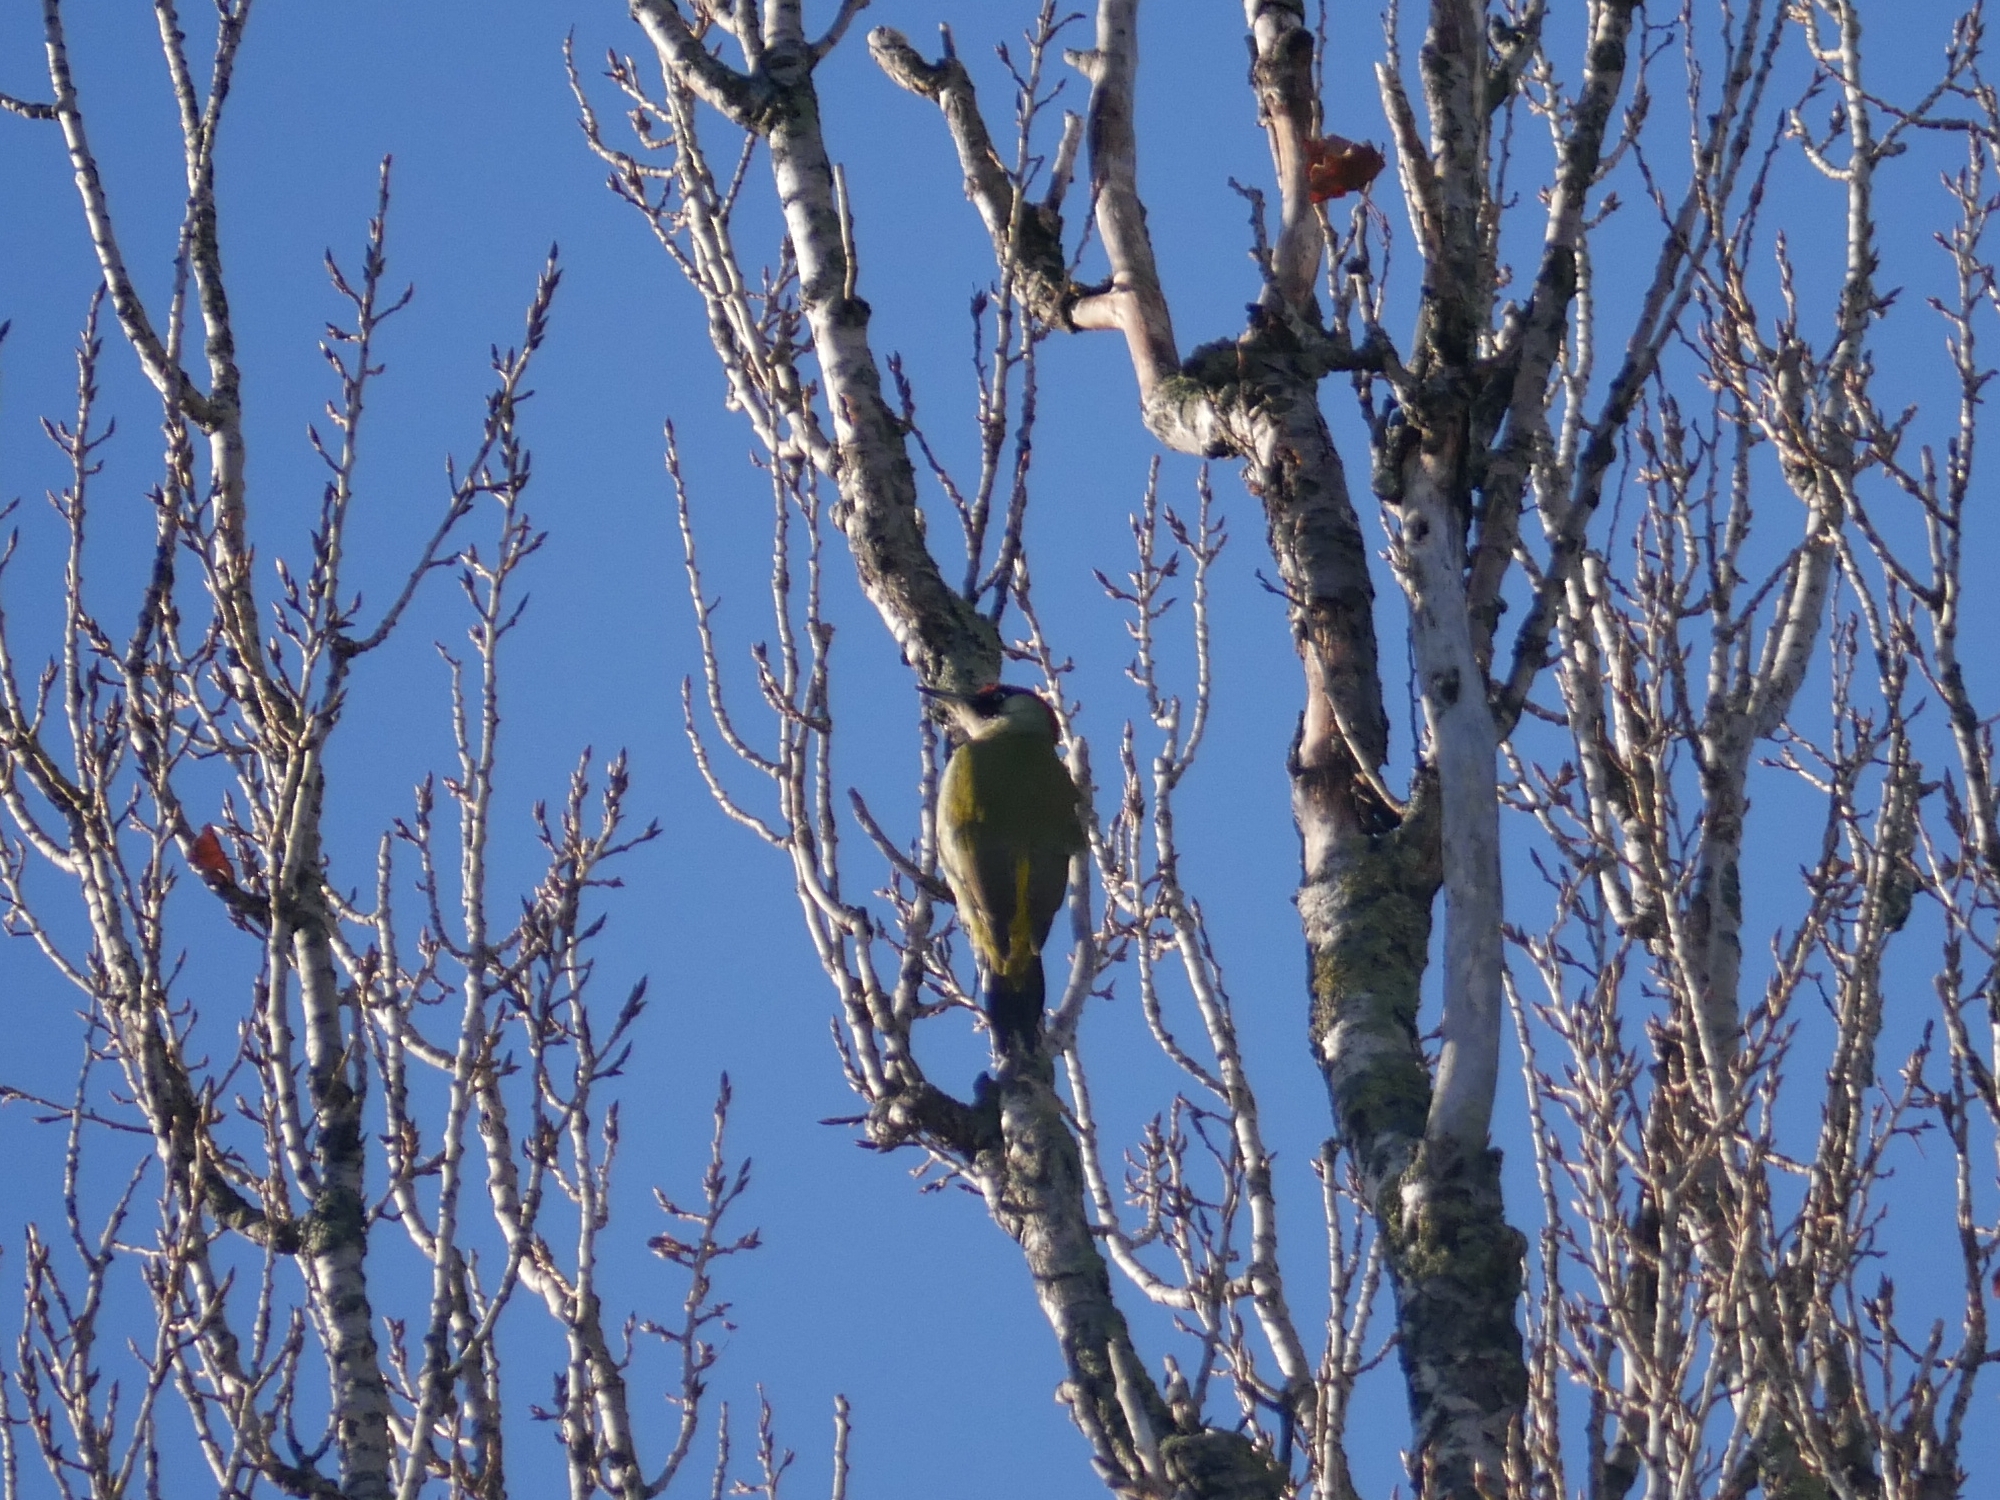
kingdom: Animalia
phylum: Chordata
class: Aves
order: Piciformes
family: Picidae
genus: Picus
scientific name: Picus viridis
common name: European green woodpecker
